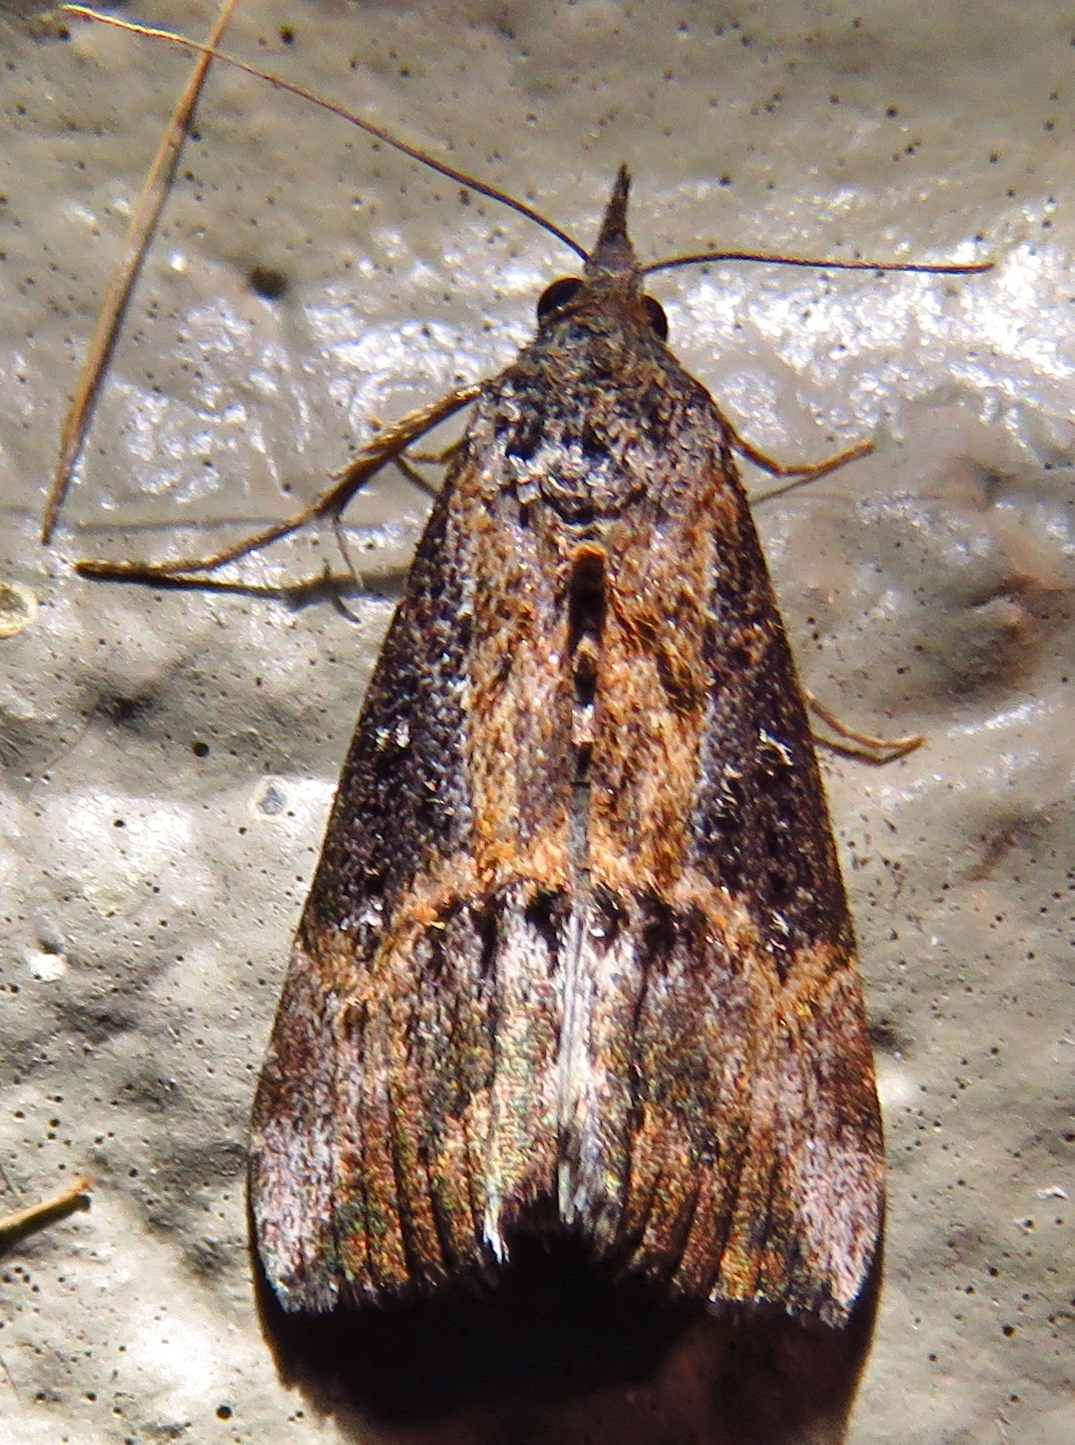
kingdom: Animalia
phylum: Arthropoda
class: Insecta
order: Lepidoptera
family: Erebidae
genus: Hypena
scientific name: Hypena scabra
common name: Green cloverworm
